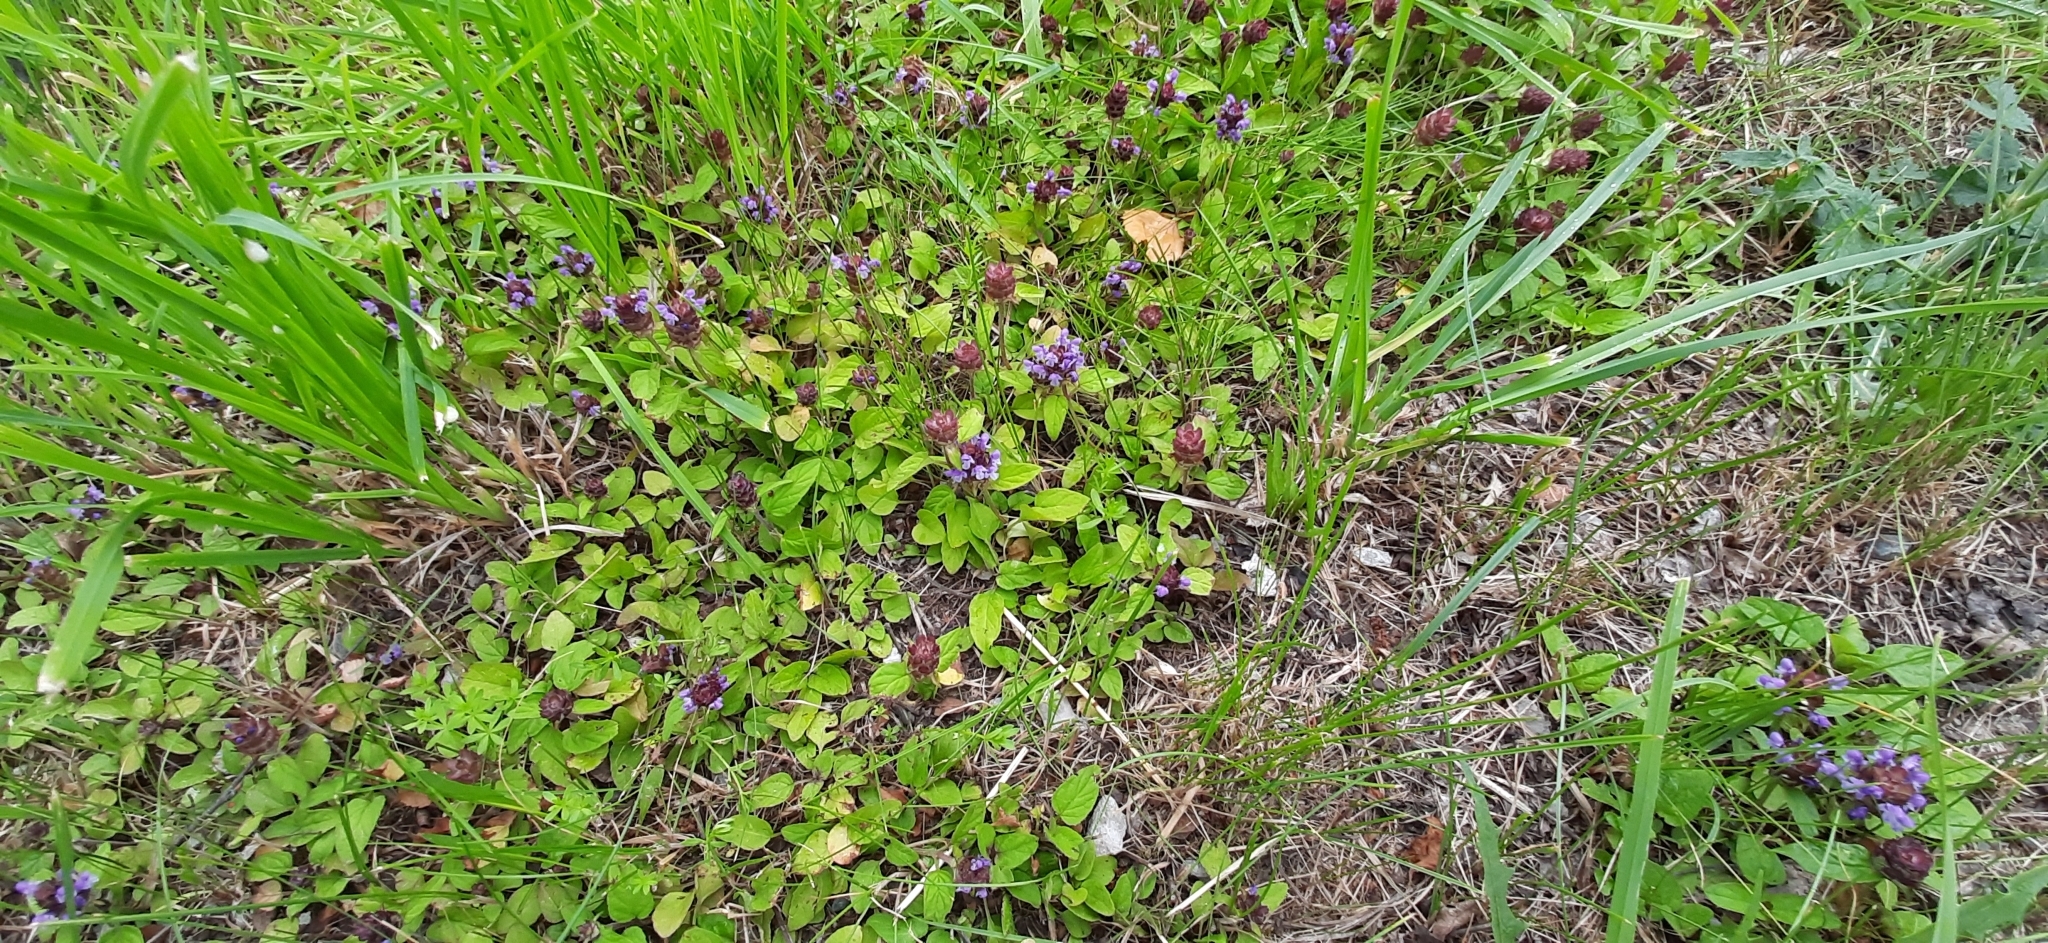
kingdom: Plantae
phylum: Tracheophyta
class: Magnoliopsida
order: Lamiales
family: Lamiaceae
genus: Prunella
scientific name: Prunella vulgaris
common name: Heal-all
